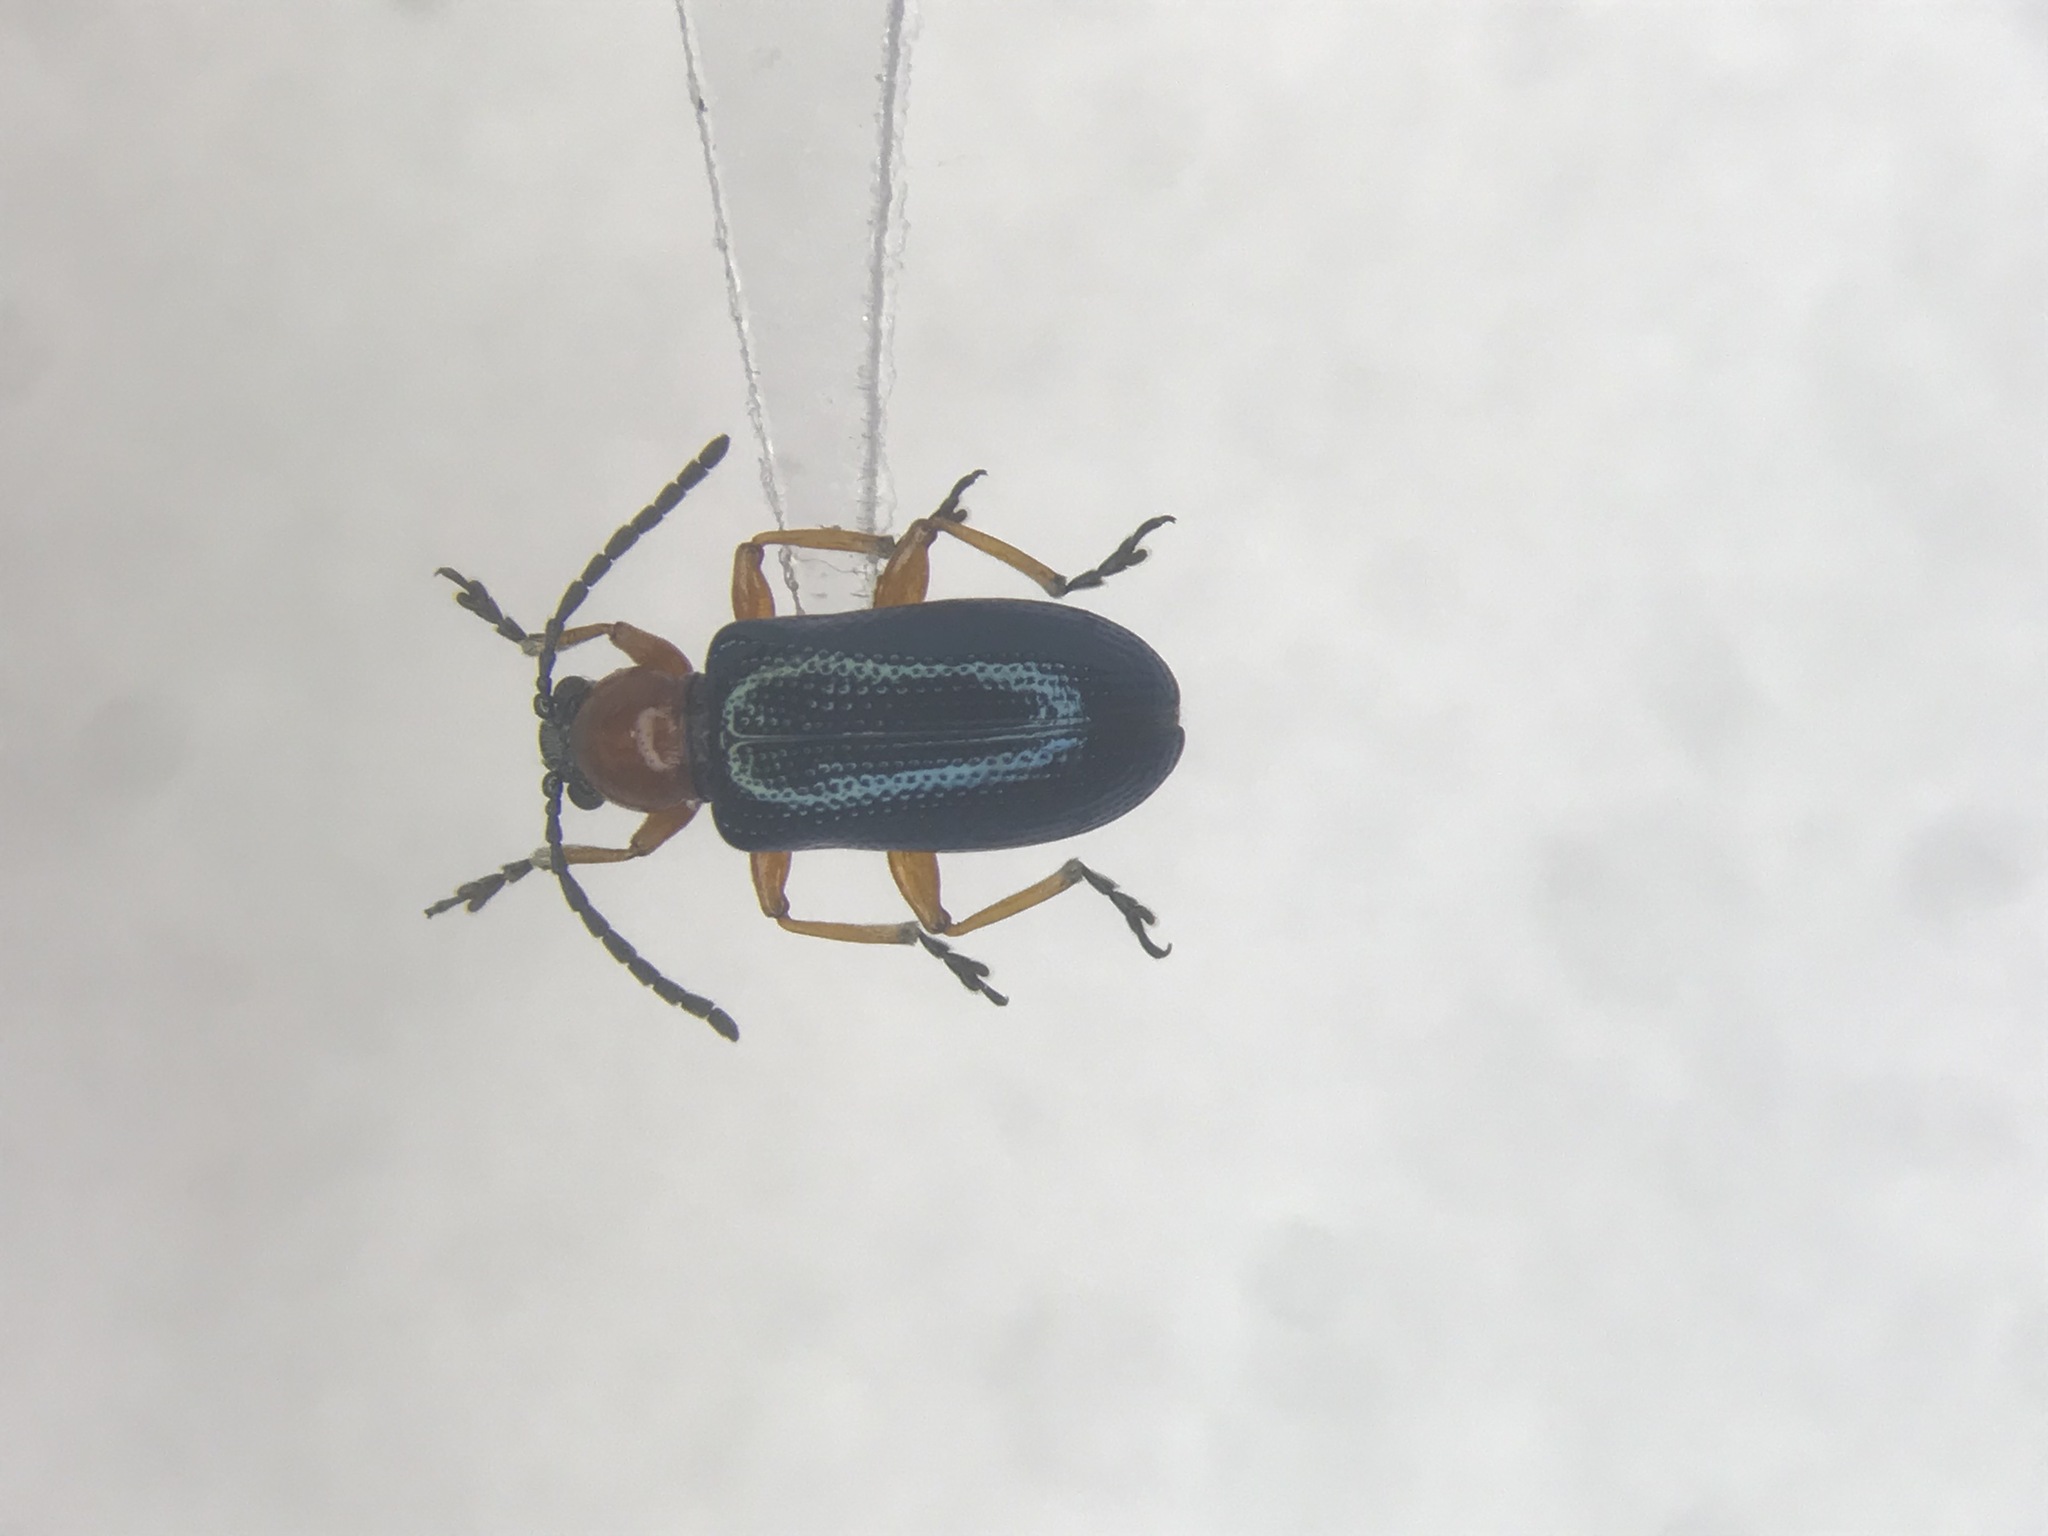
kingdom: Animalia
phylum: Arthropoda
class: Insecta
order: Coleoptera
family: Chrysomelidae
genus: Oulema
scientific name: Oulema melanopus
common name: Cereal leaf beetle
